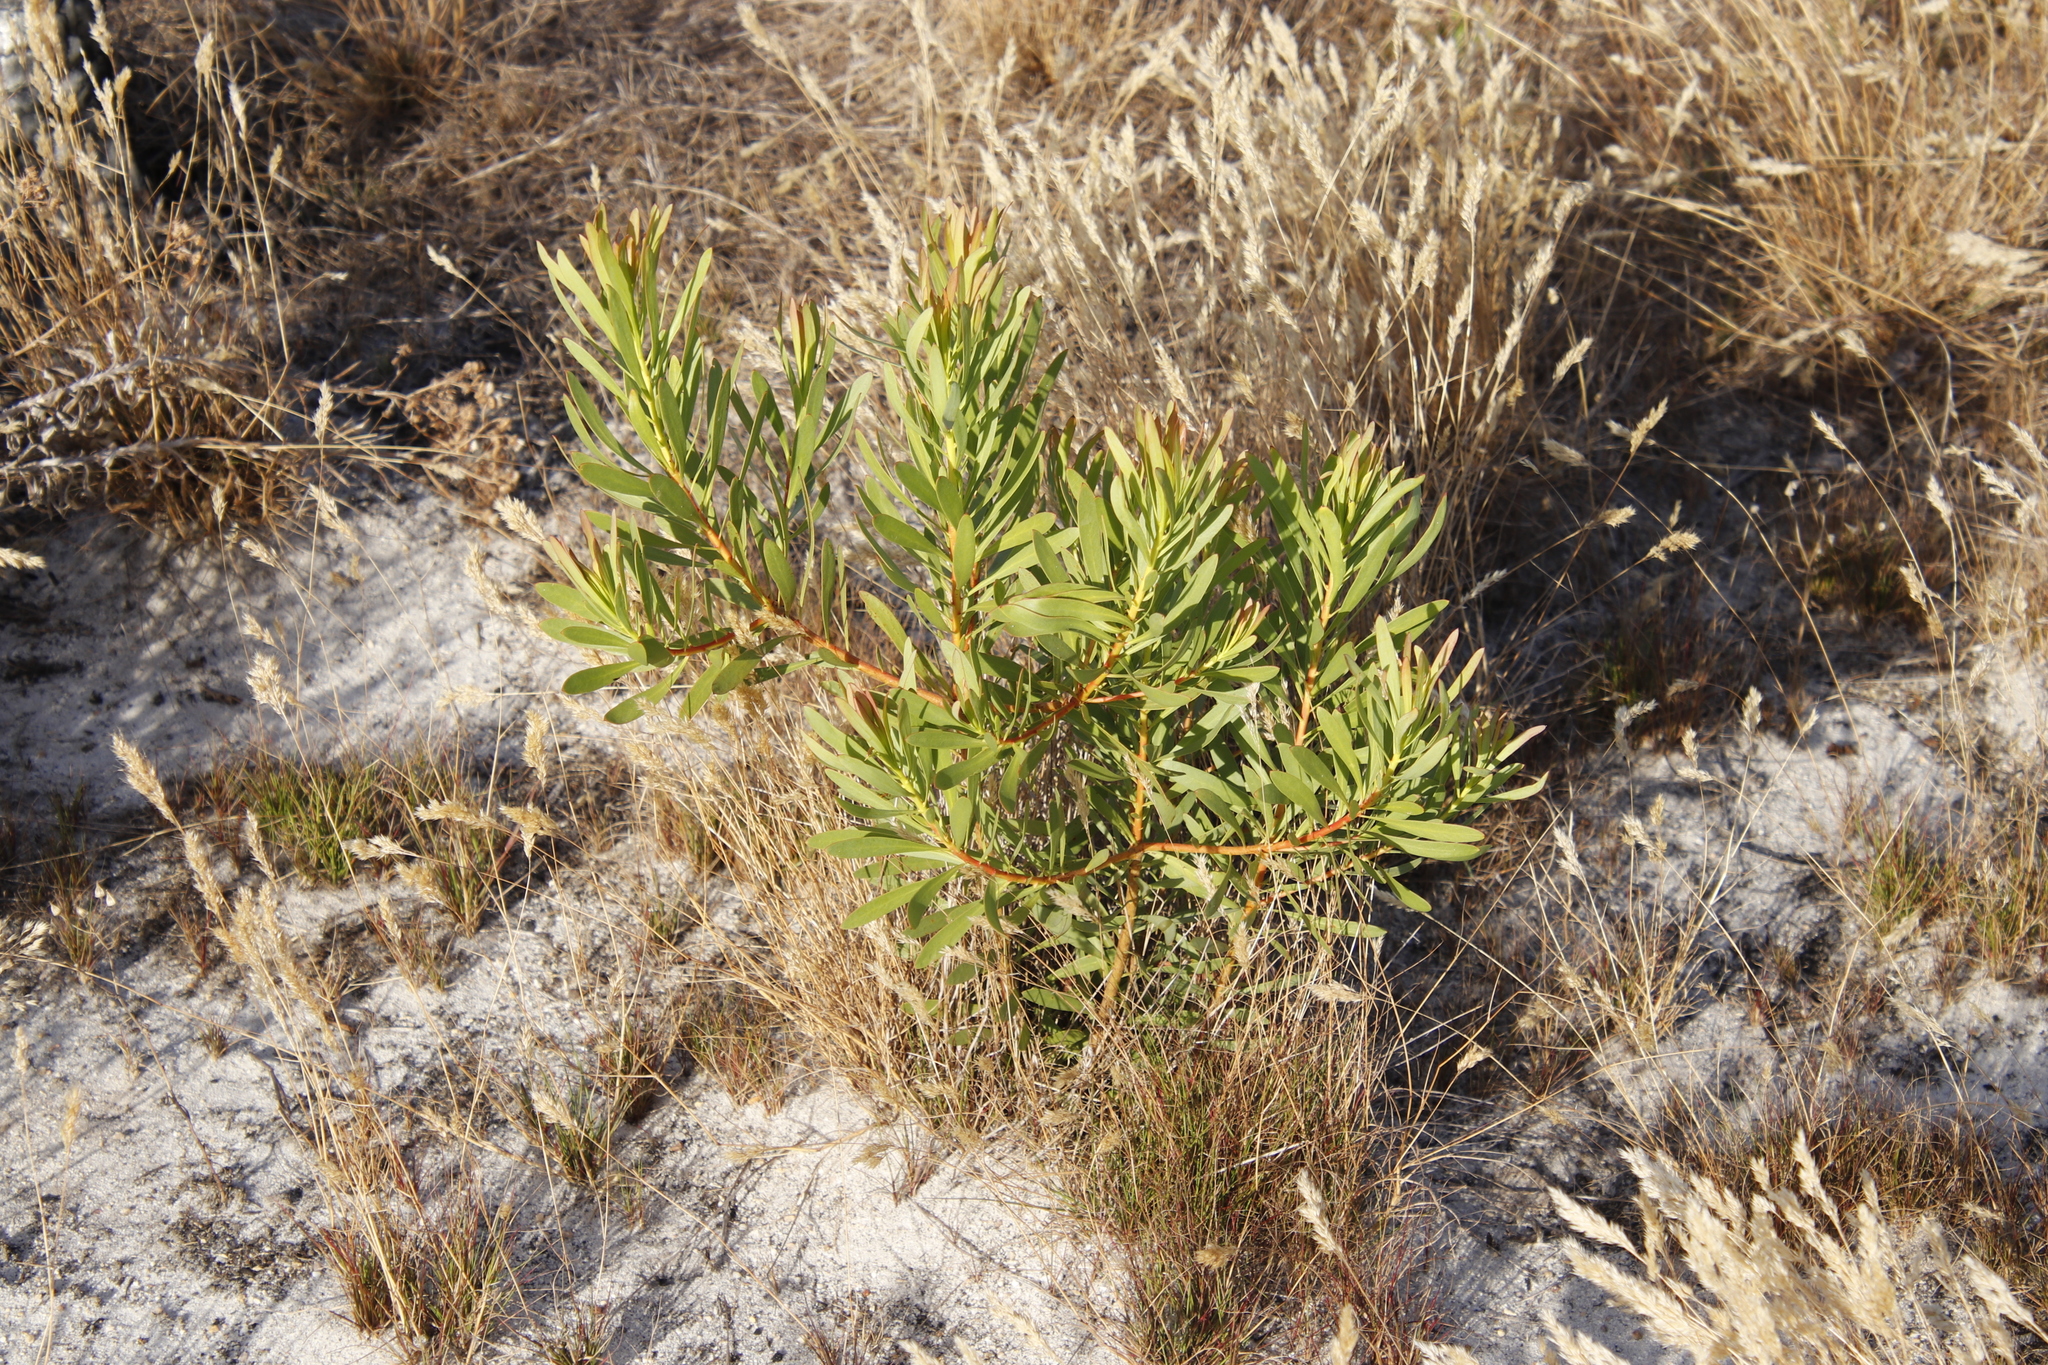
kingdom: Plantae
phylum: Tracheophyta
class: Magnoliopsida
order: Proteales
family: Proteaceae
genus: Protea
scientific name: Protea repens
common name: Sugarbush
